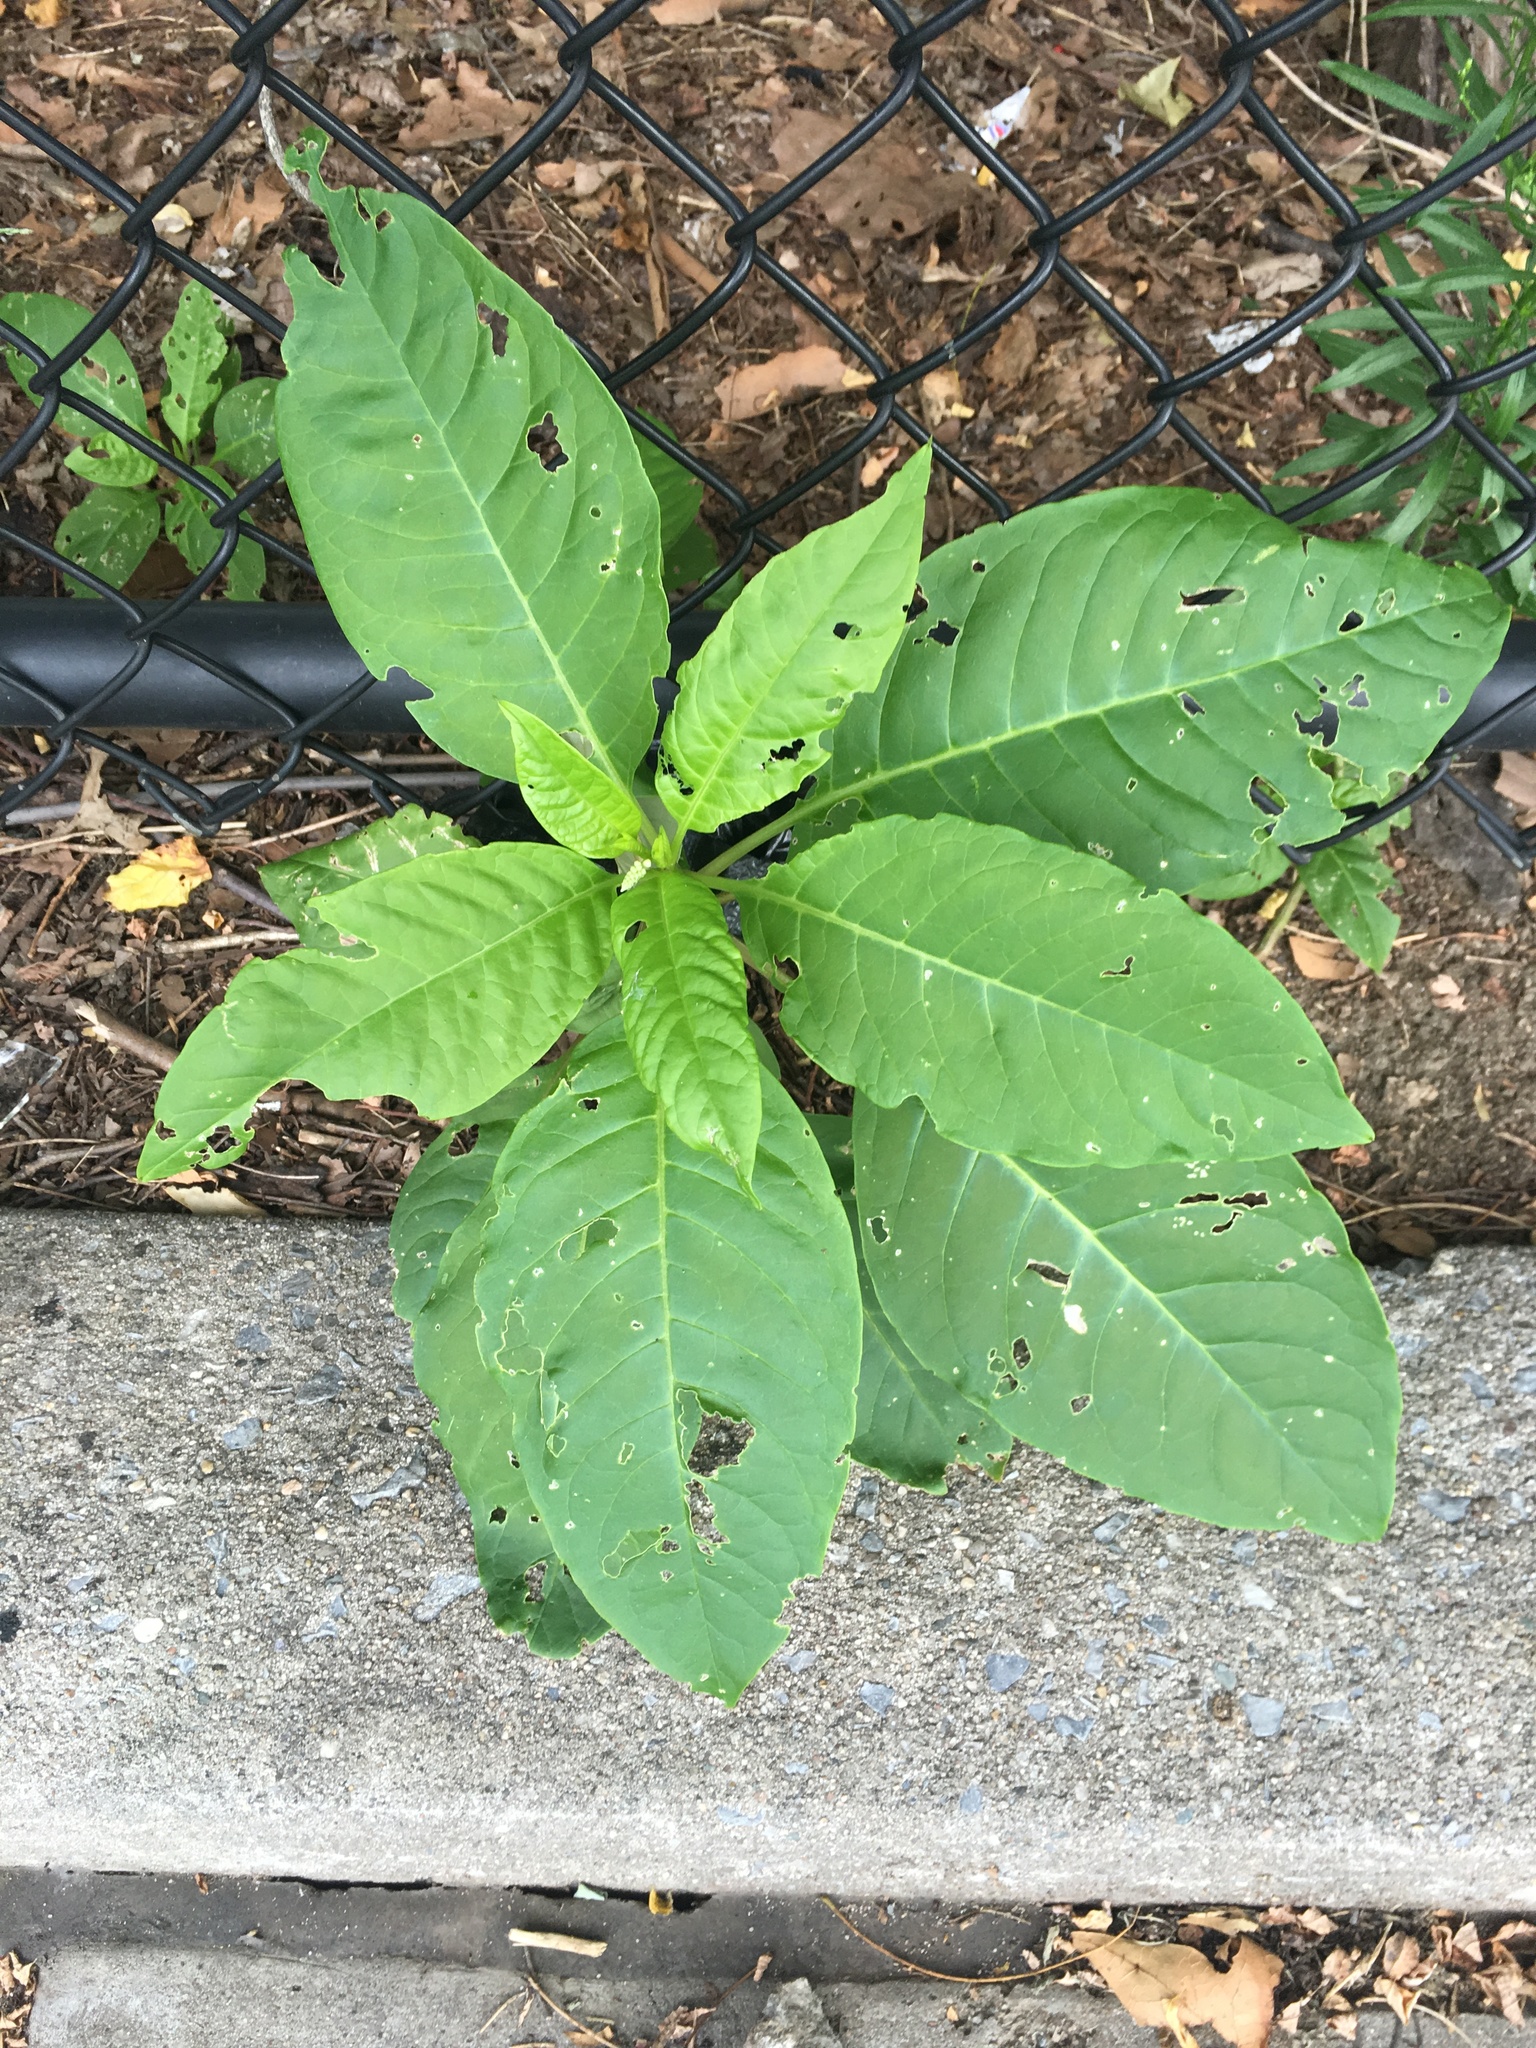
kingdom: Plantae
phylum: Tracheophyta
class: Magnoliopsida
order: Caryophyllales
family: Phytolaccaceae
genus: Phytolacca
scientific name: Phytolacca americana
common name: American pokeweed
